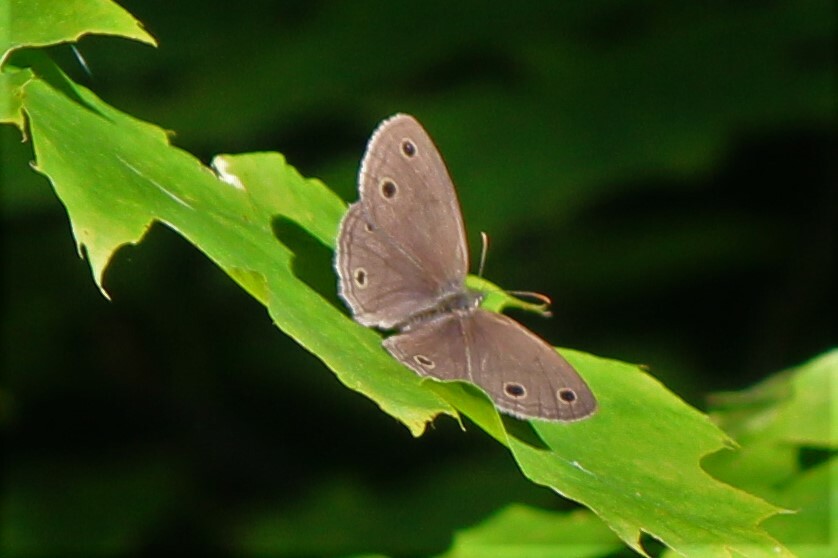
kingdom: Animalia
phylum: Arthropoda
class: Insecta
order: Lepidoptera
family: Nymphalidae
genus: Euptychia
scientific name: Euptychia cymela
